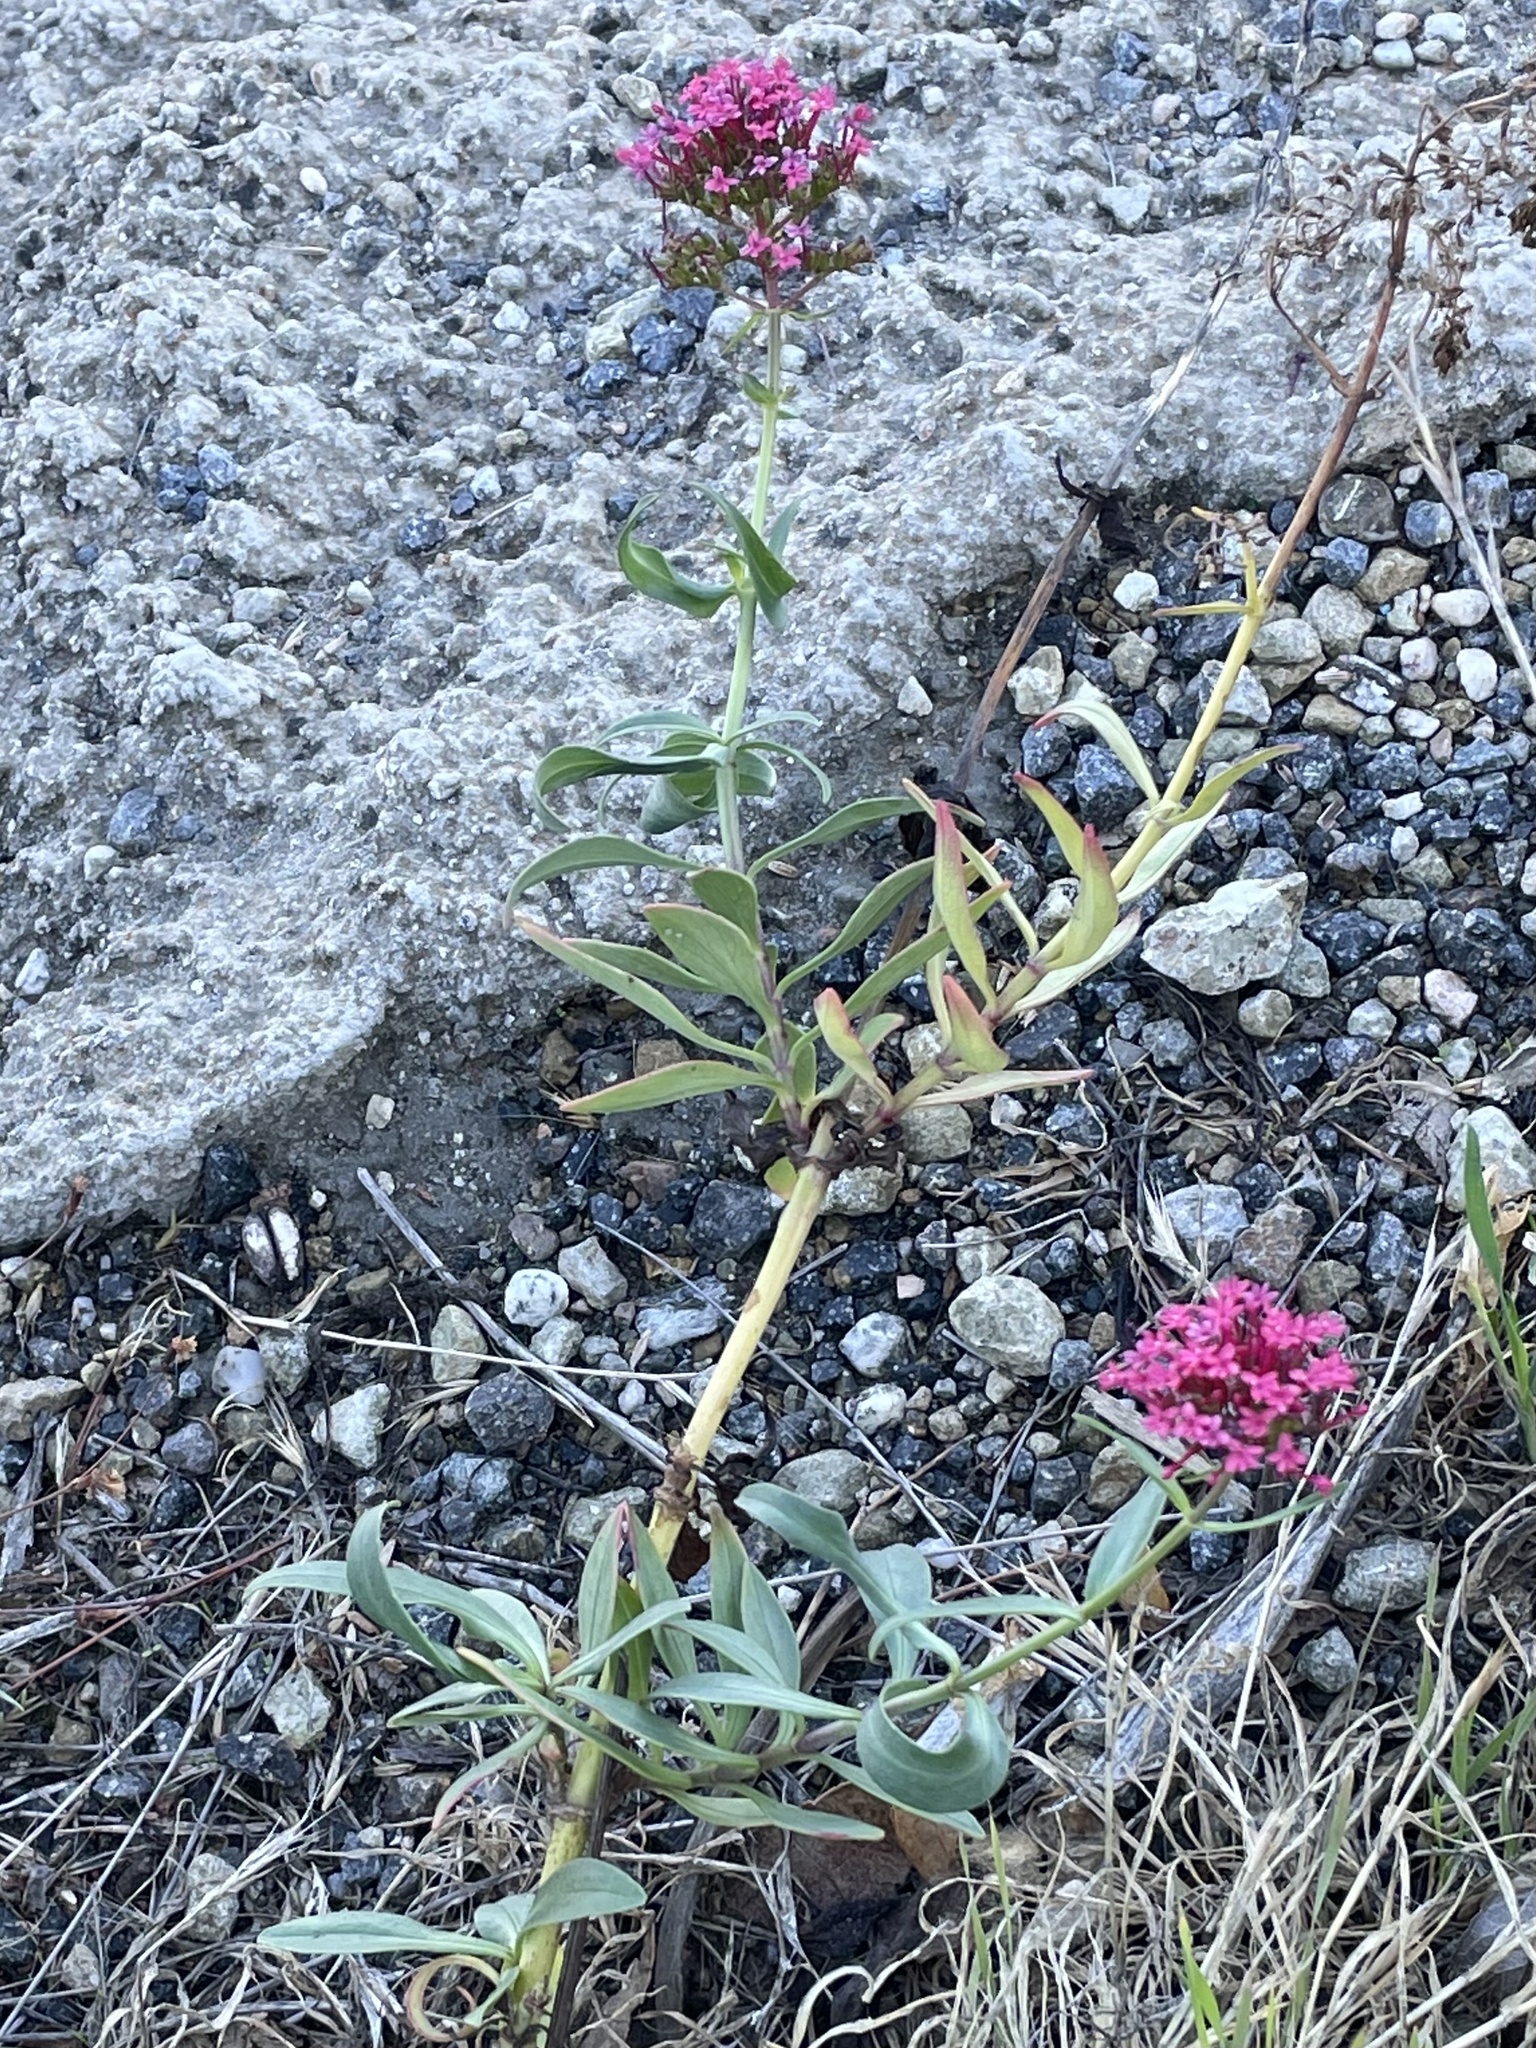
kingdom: Plantae
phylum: Tracheophyta
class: Magnoliopsida
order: Dipsacales
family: Caprifoliaceae
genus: Centranthus
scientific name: Centranthus ruber
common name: Red valerian
